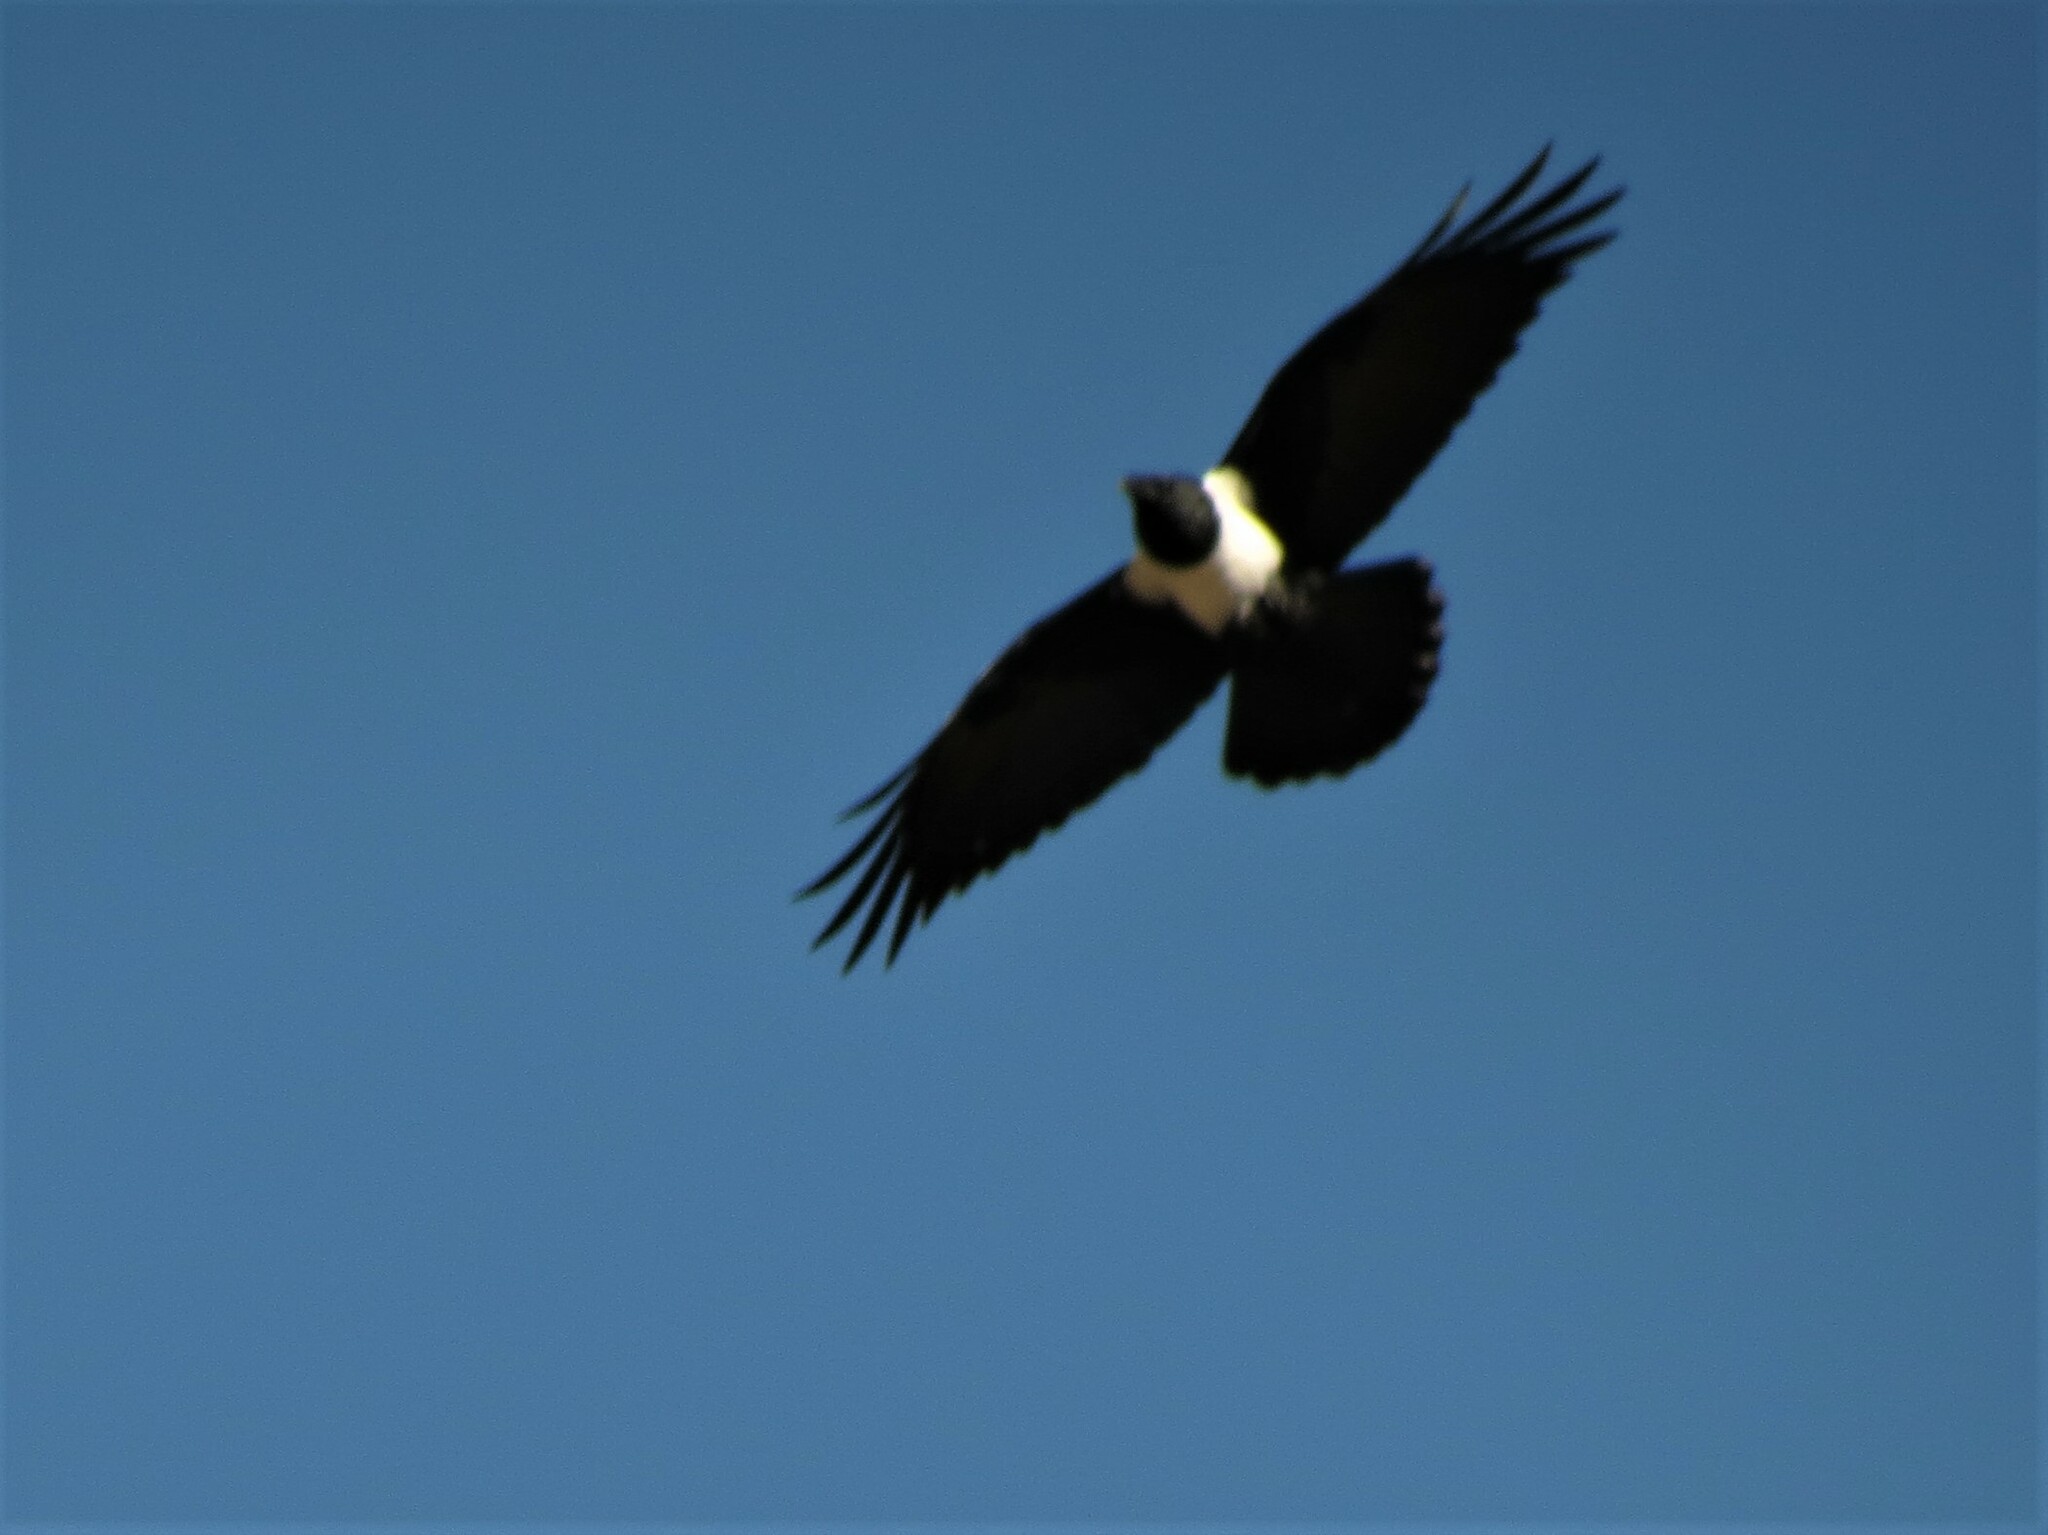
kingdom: Animalia
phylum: Chordata
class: Aves
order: Passeriformes
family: Corvidae
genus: Corvus
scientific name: Corvus albus
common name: Pied crow
